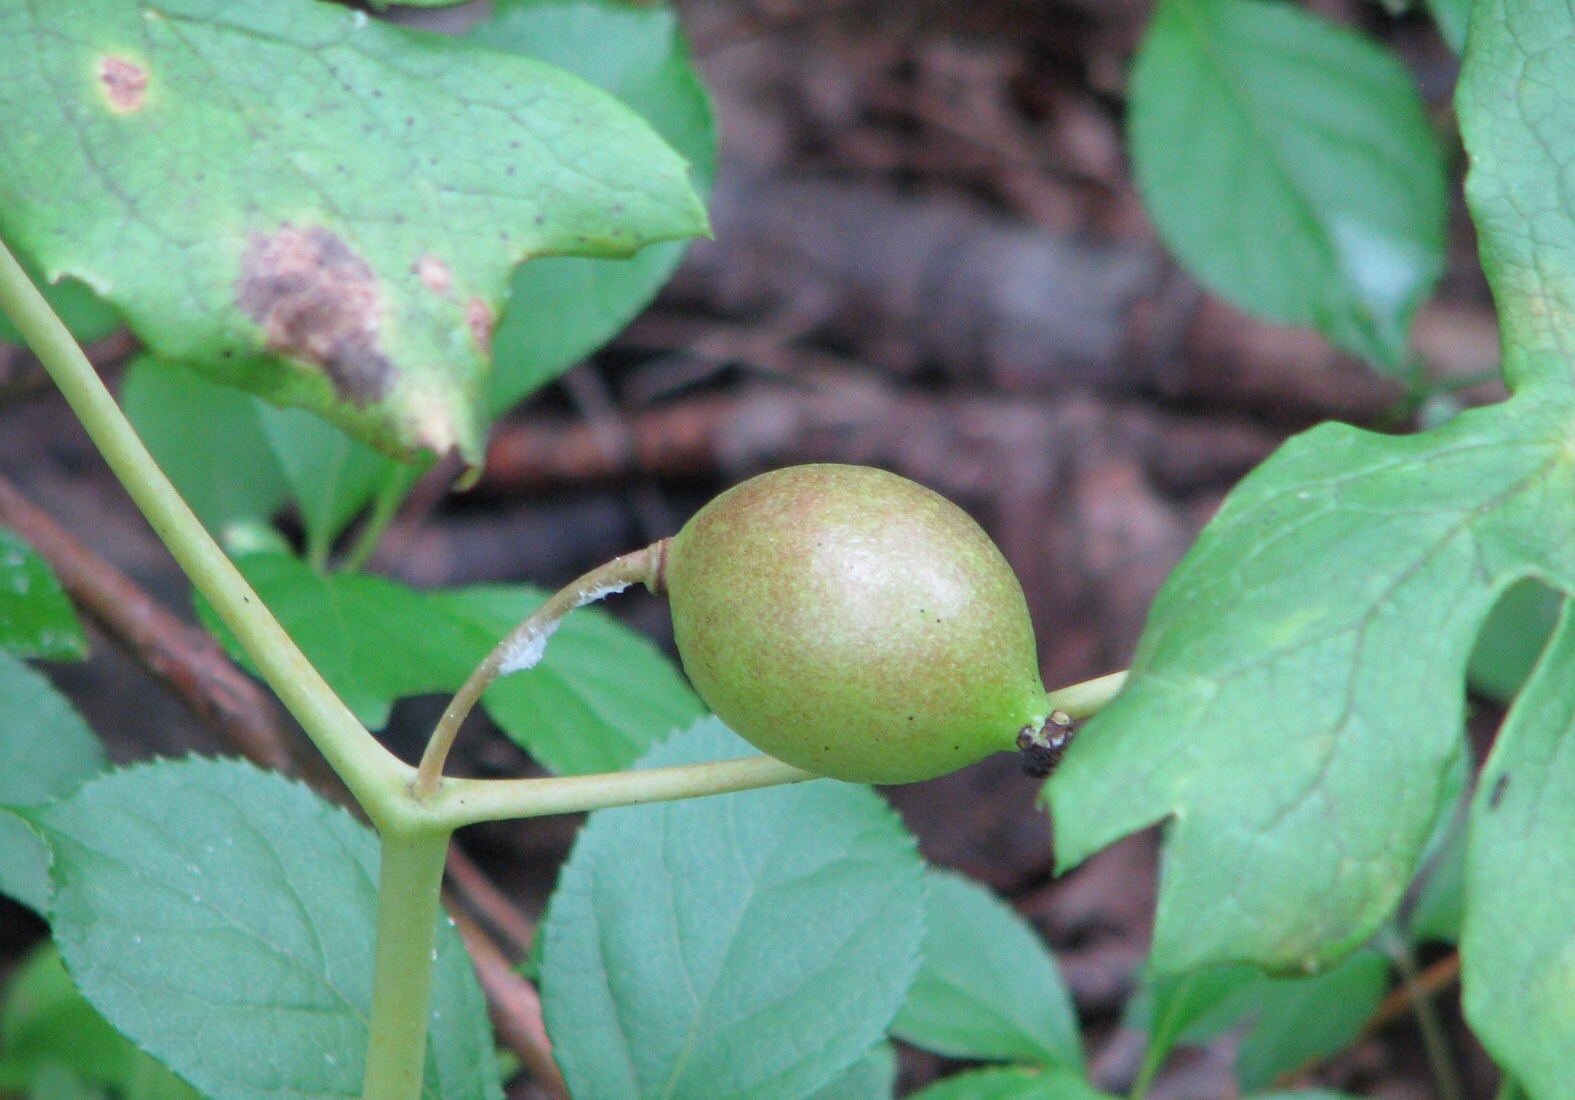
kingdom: Plantae
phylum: Tracheophyta
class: Magnoliopsida
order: Ranunculales
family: Berberidaceae
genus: Podophyllum
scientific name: Podophyllum peltatum
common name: Wild mandrake
